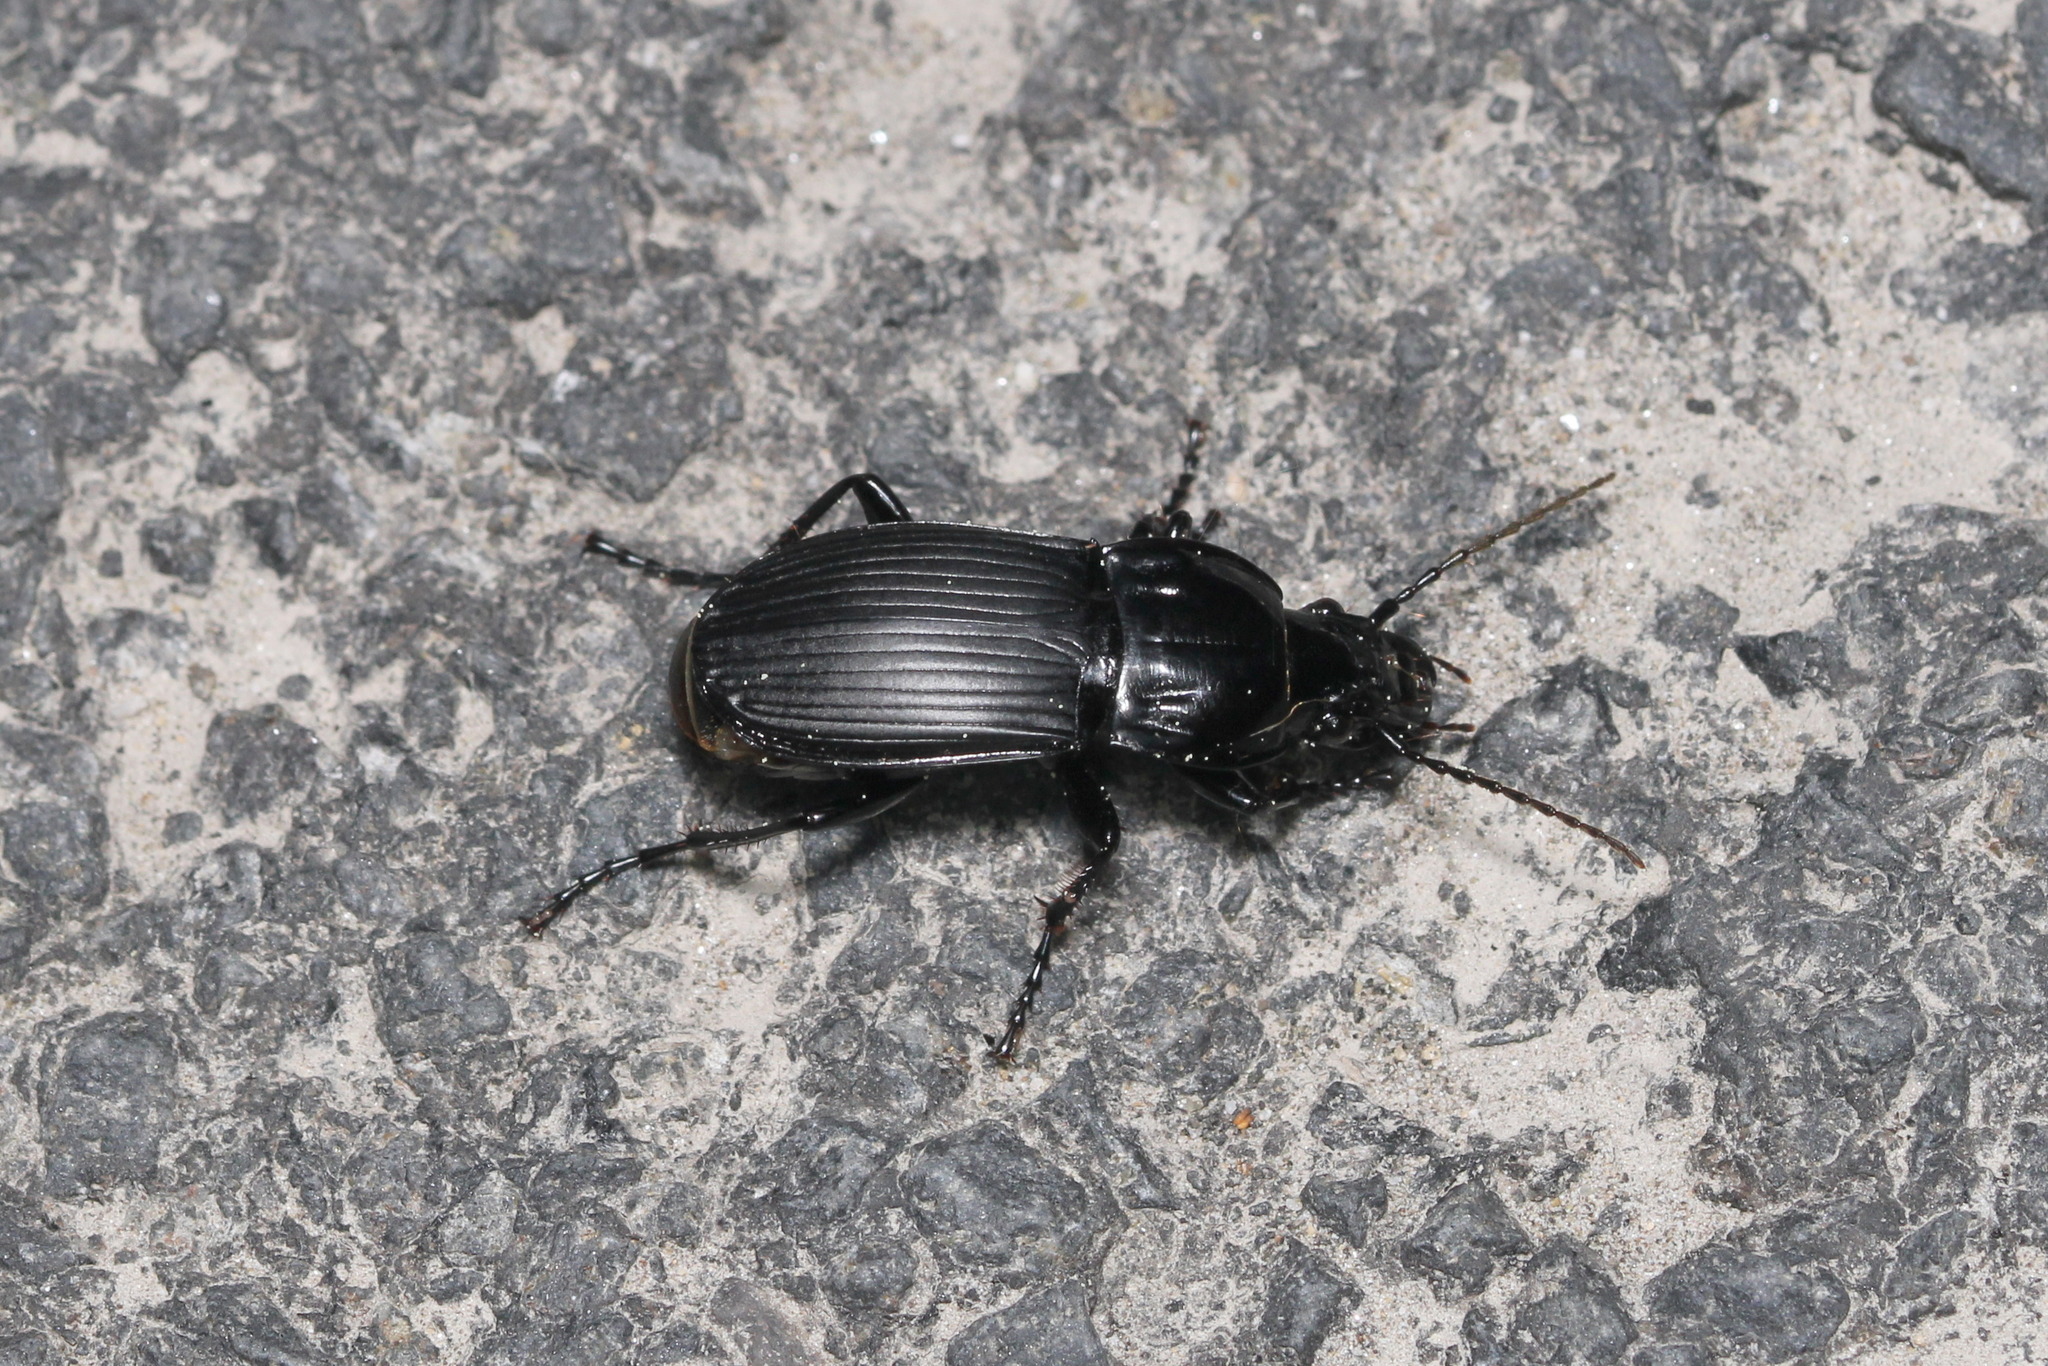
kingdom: Animalia
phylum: Arthropoda
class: Insecta
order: Coleoptera
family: Carabidae
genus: Abax
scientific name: Abax parallelepipedus
